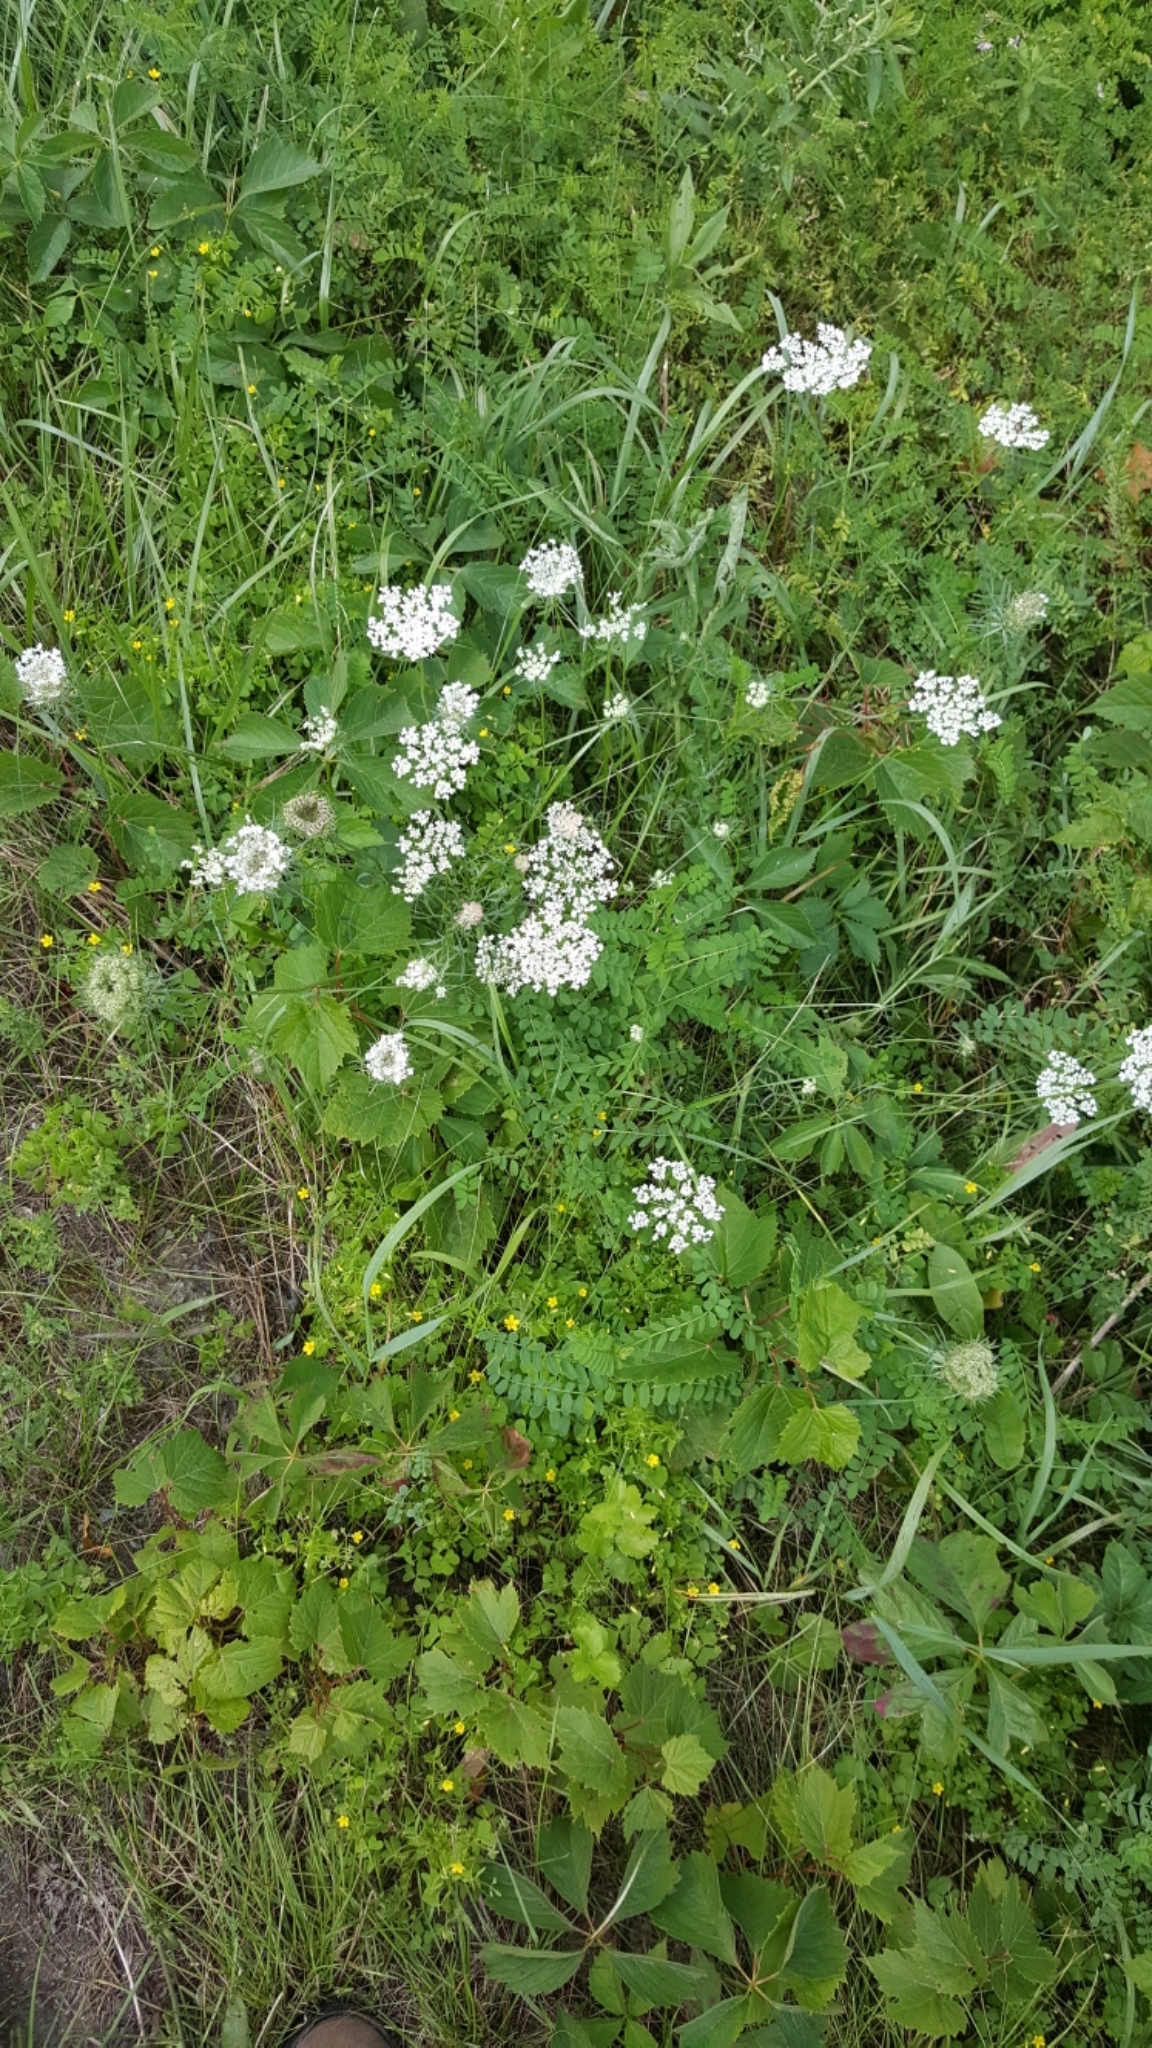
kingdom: Plantae
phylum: Tracheophyta
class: Magnoliopsida
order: Apiales
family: Apiaceae
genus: Daucus
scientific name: Daucus carota
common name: Wild carrot
